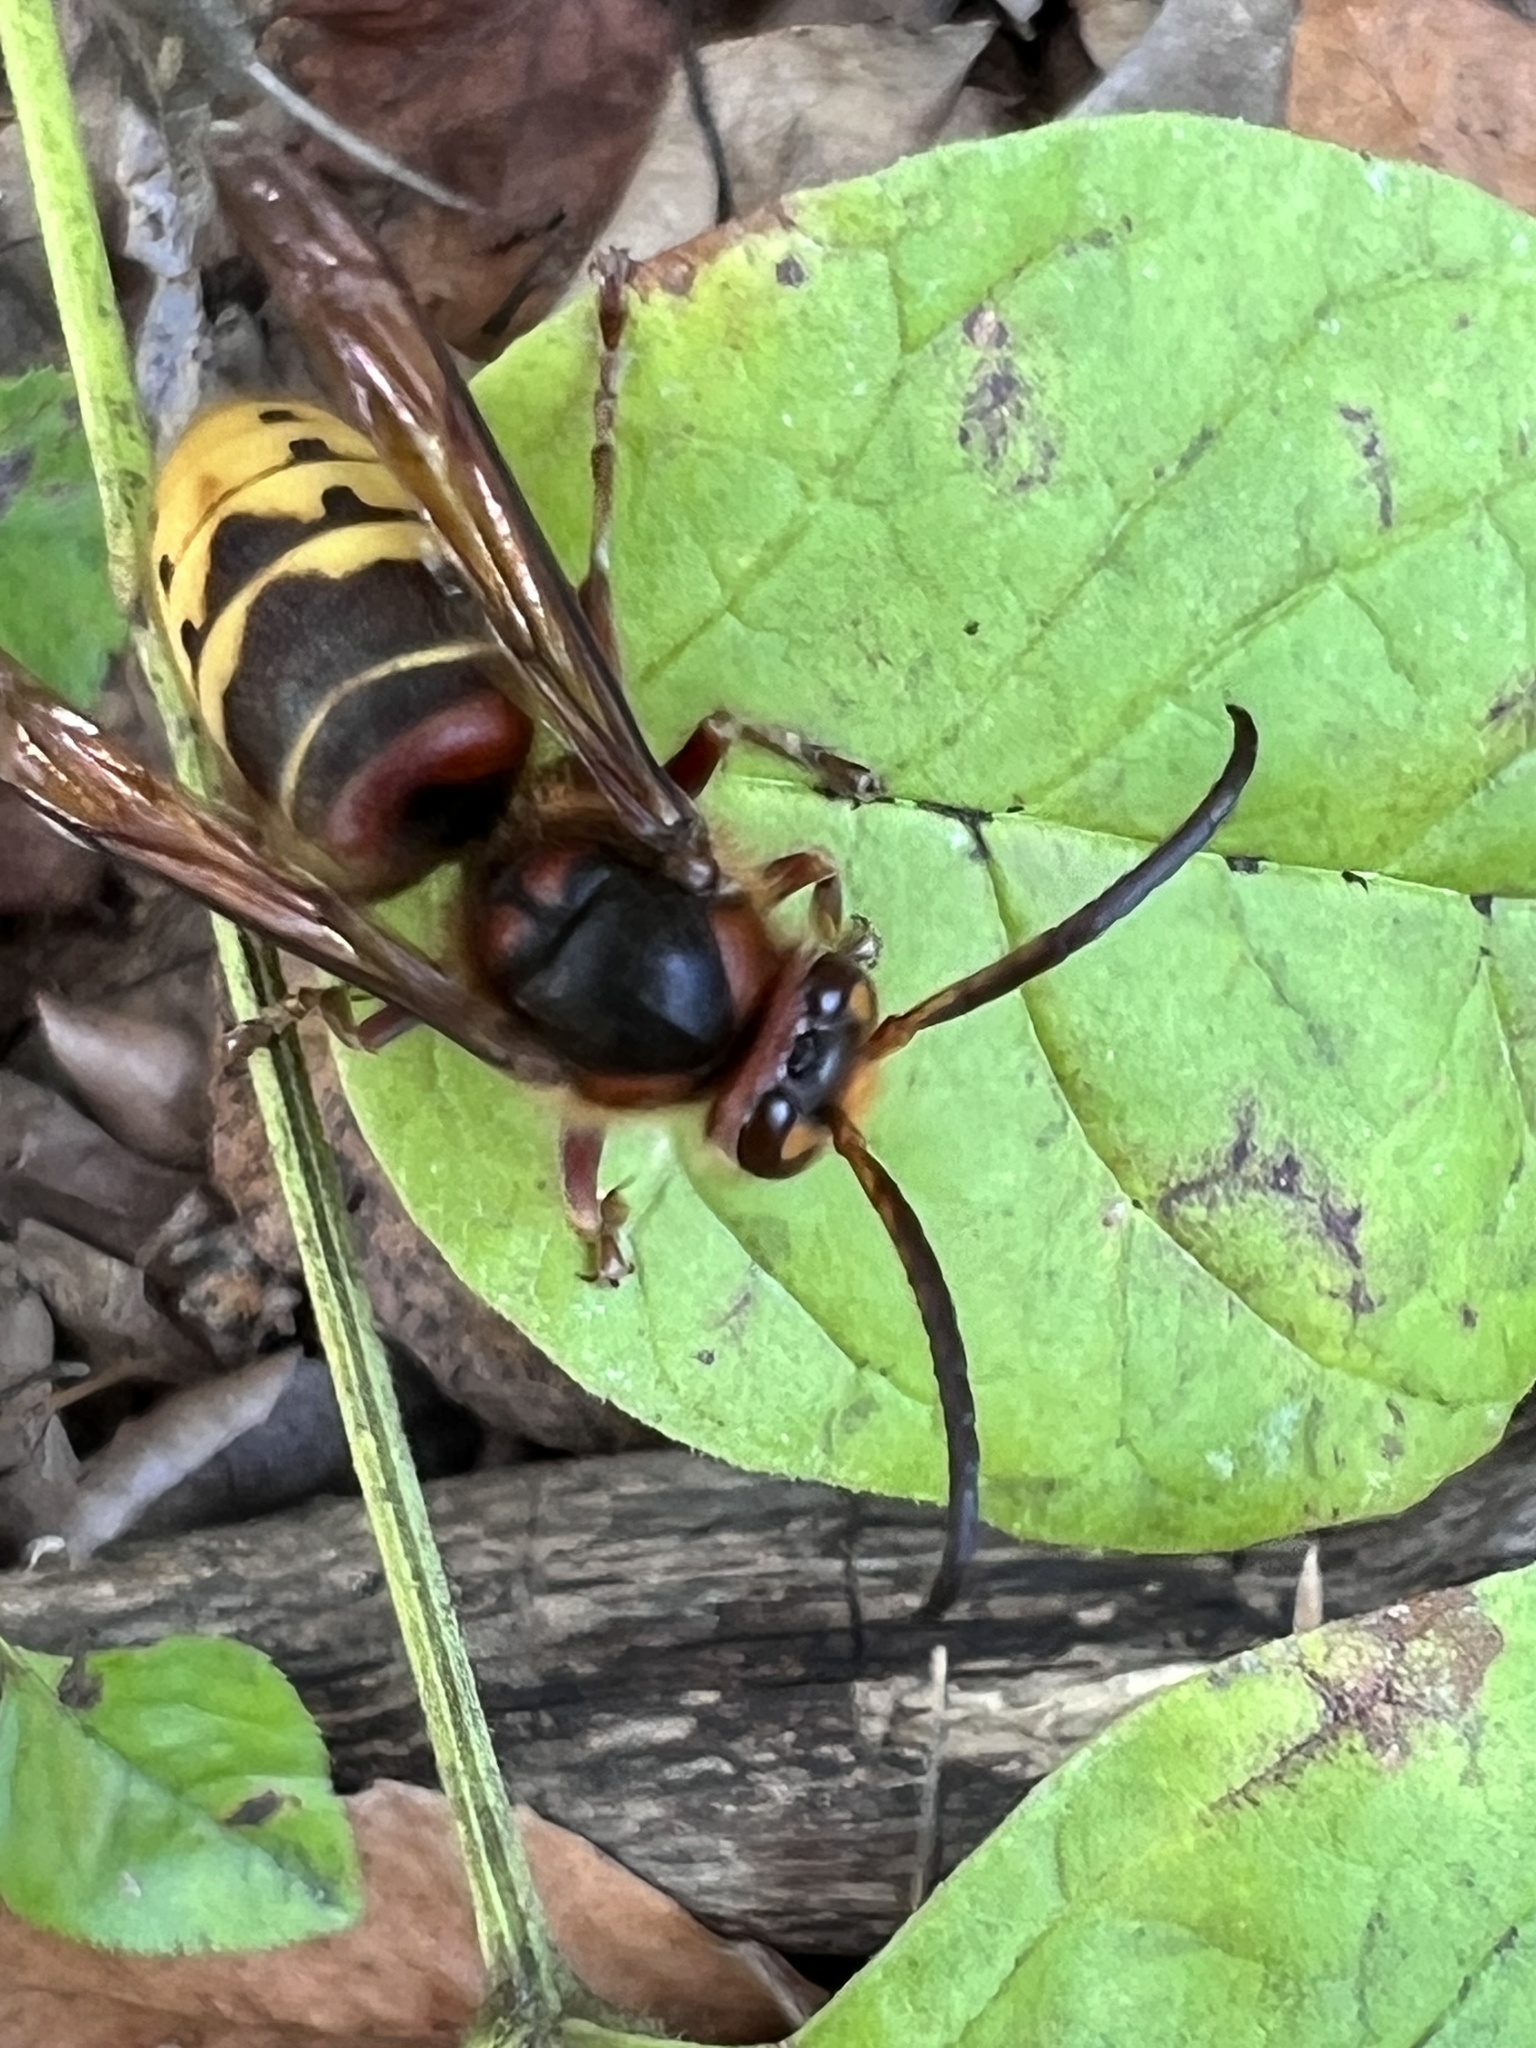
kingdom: Animalia
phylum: Arthropoda
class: Insecta
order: Hymenoptera
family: Vespidae
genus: Vespa
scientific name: Vespa crabro
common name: Hornet
